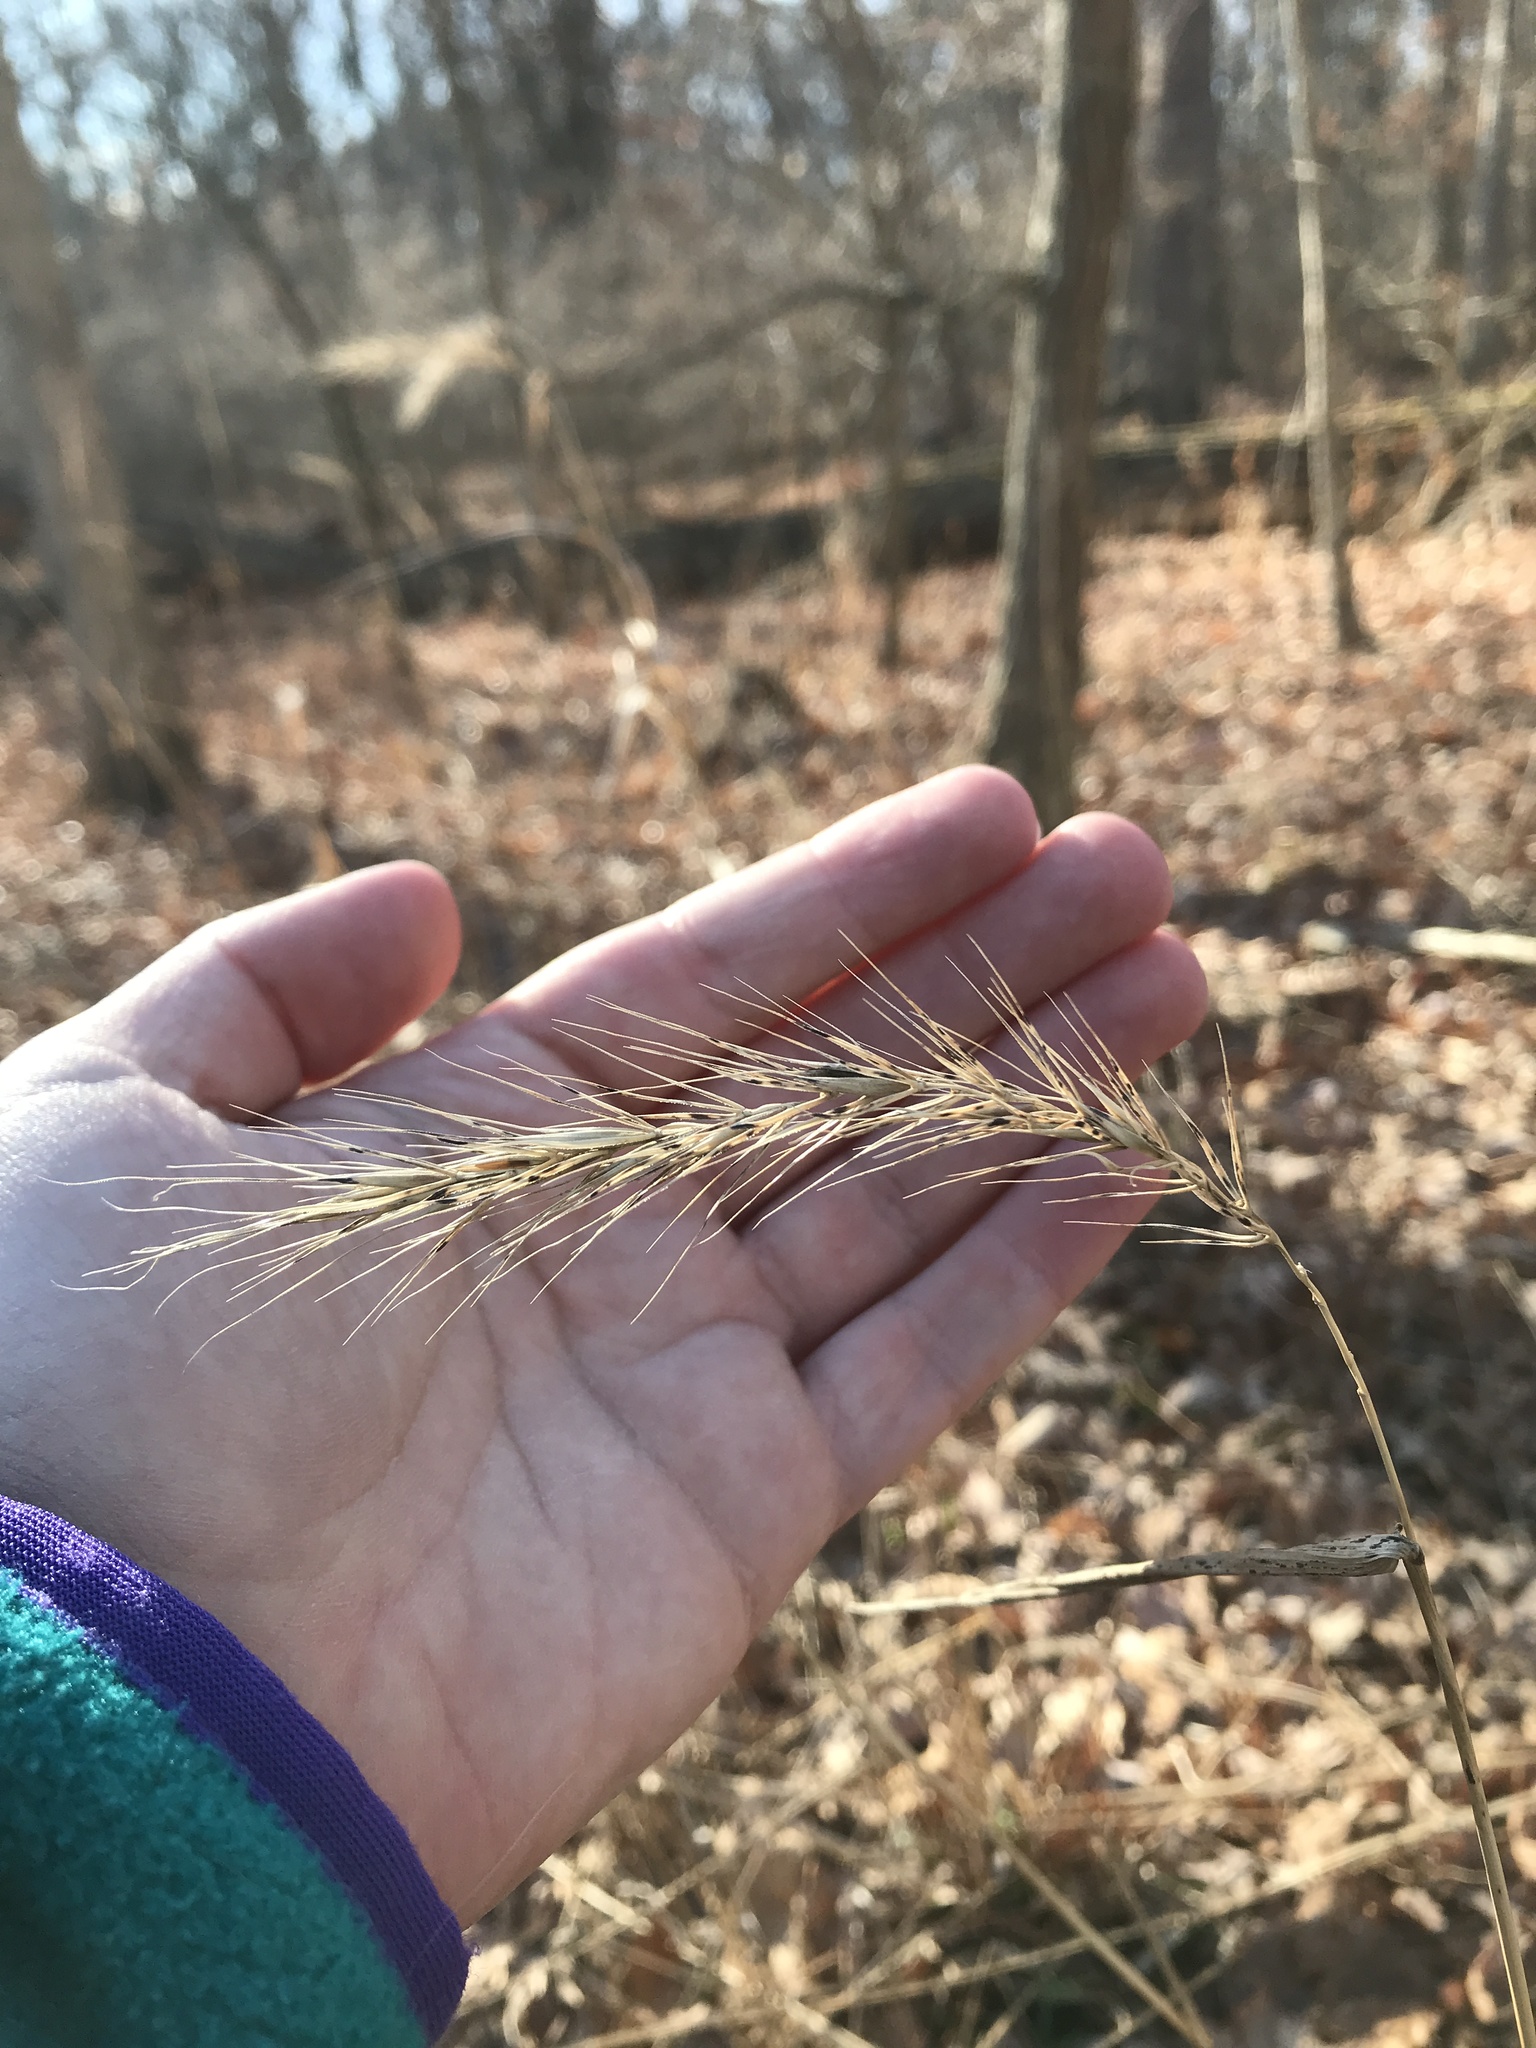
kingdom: Plantae
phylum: Tracheophyta
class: Liliopsida
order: Poales
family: Poaceae
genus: Elymus
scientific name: Elymus canadensis
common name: Canada wild rye
